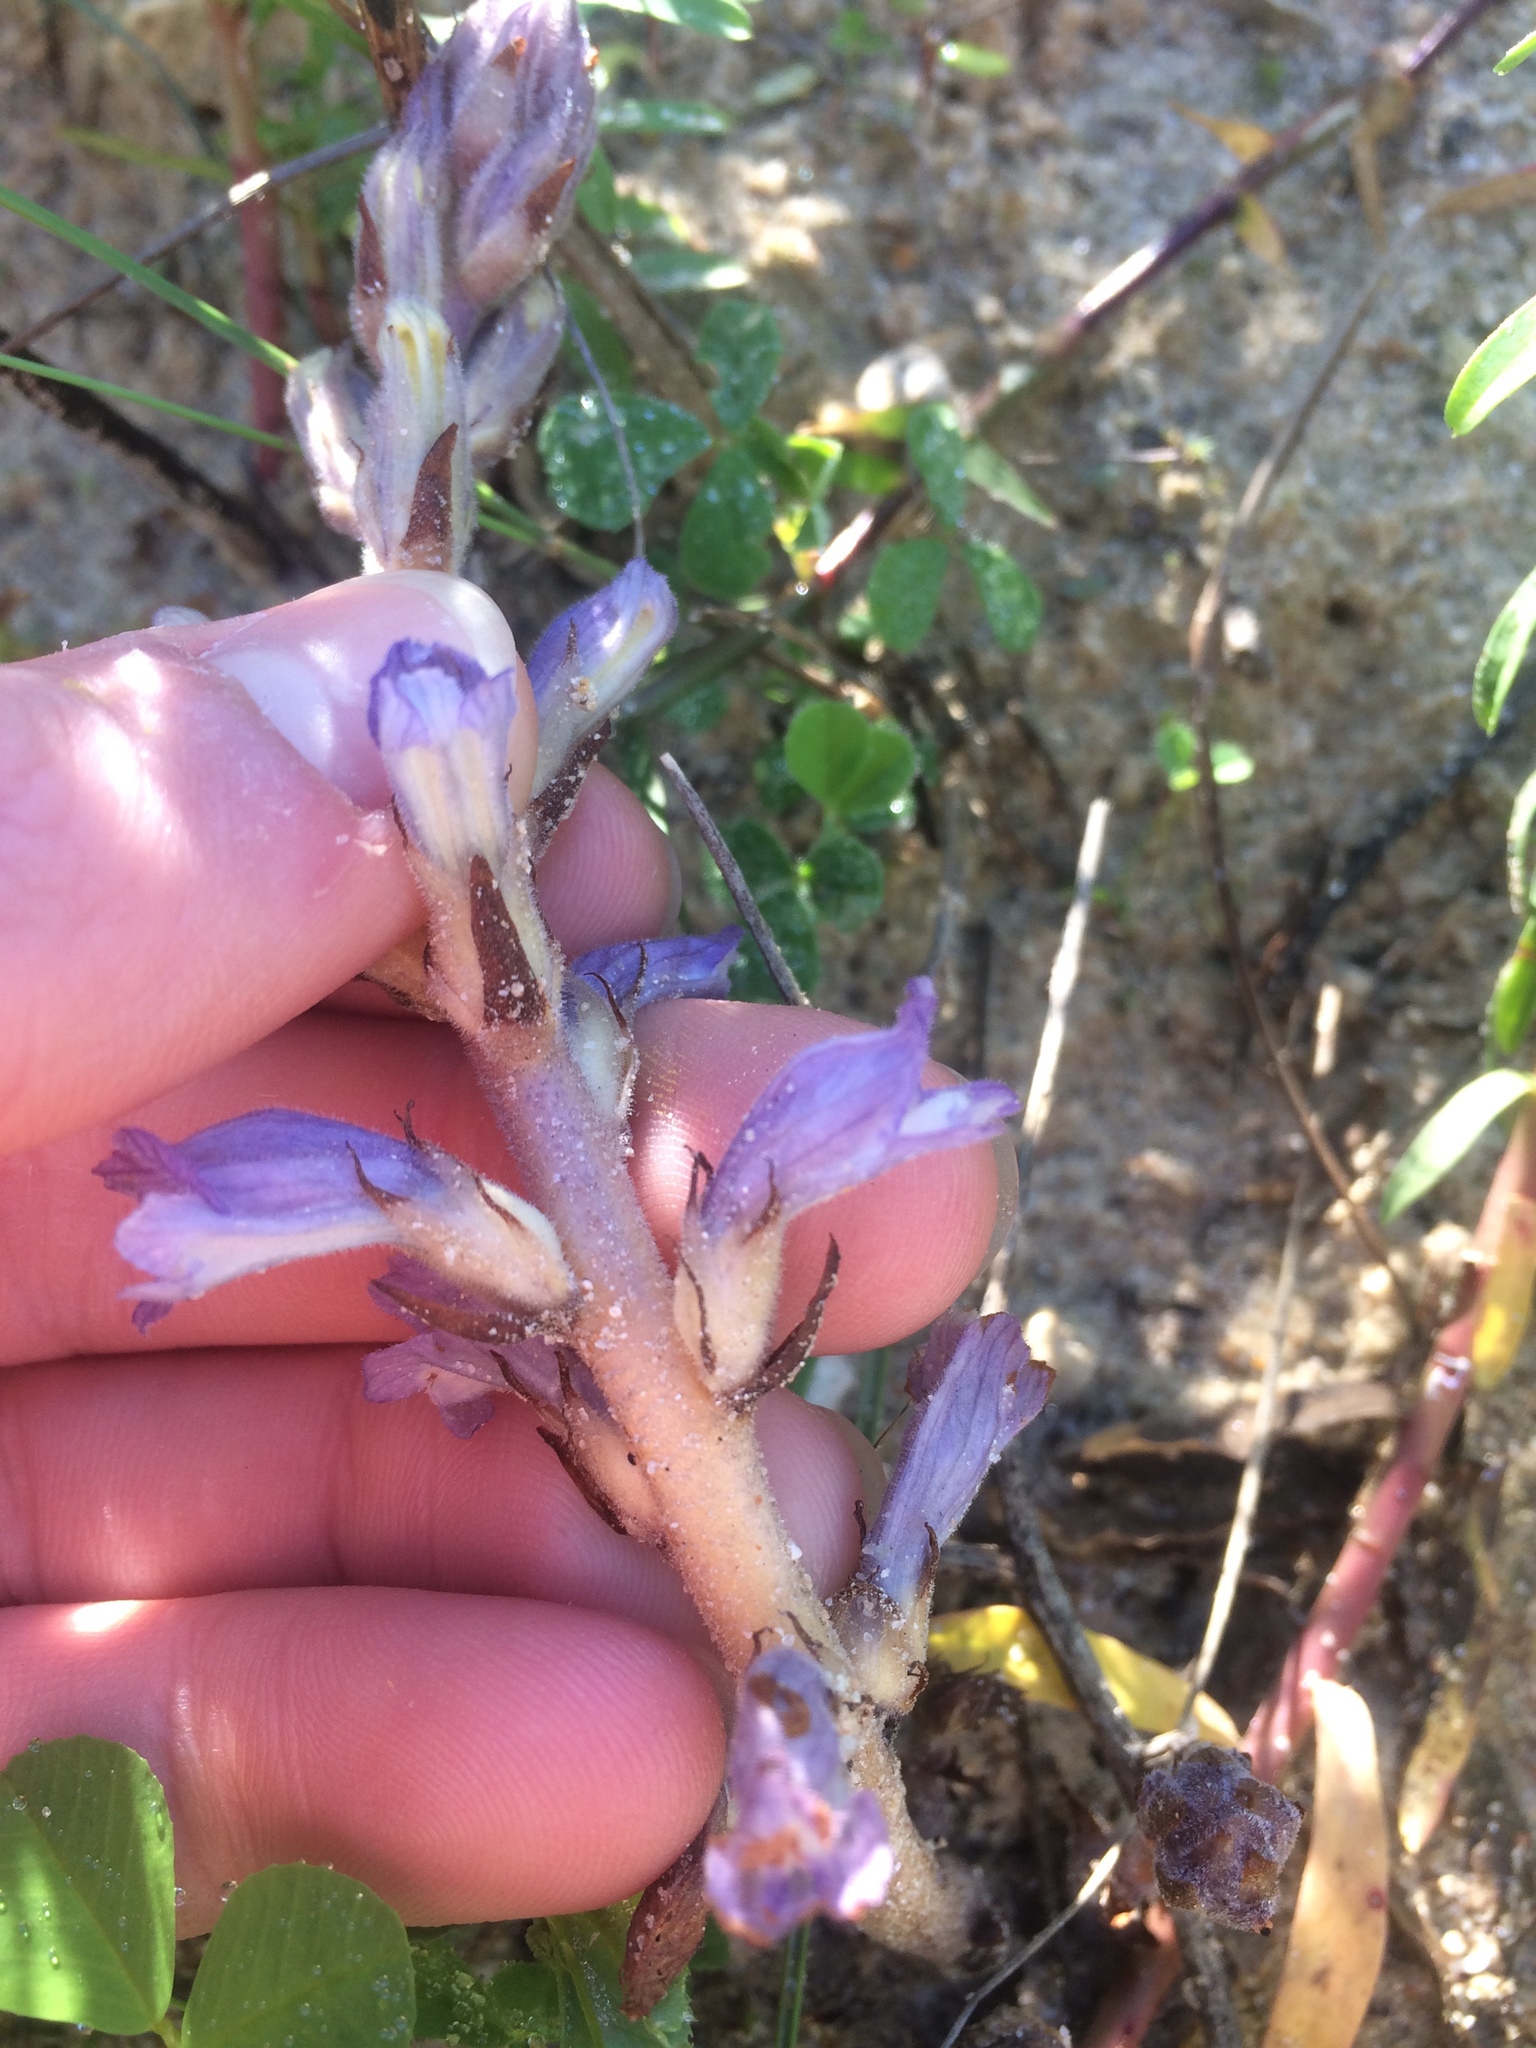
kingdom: Plantae
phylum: Tracheophyta
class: Magnoliopsida
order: Lamiales
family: Orobanchaceae
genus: Phelipanche
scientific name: Phelipanche mutelii
